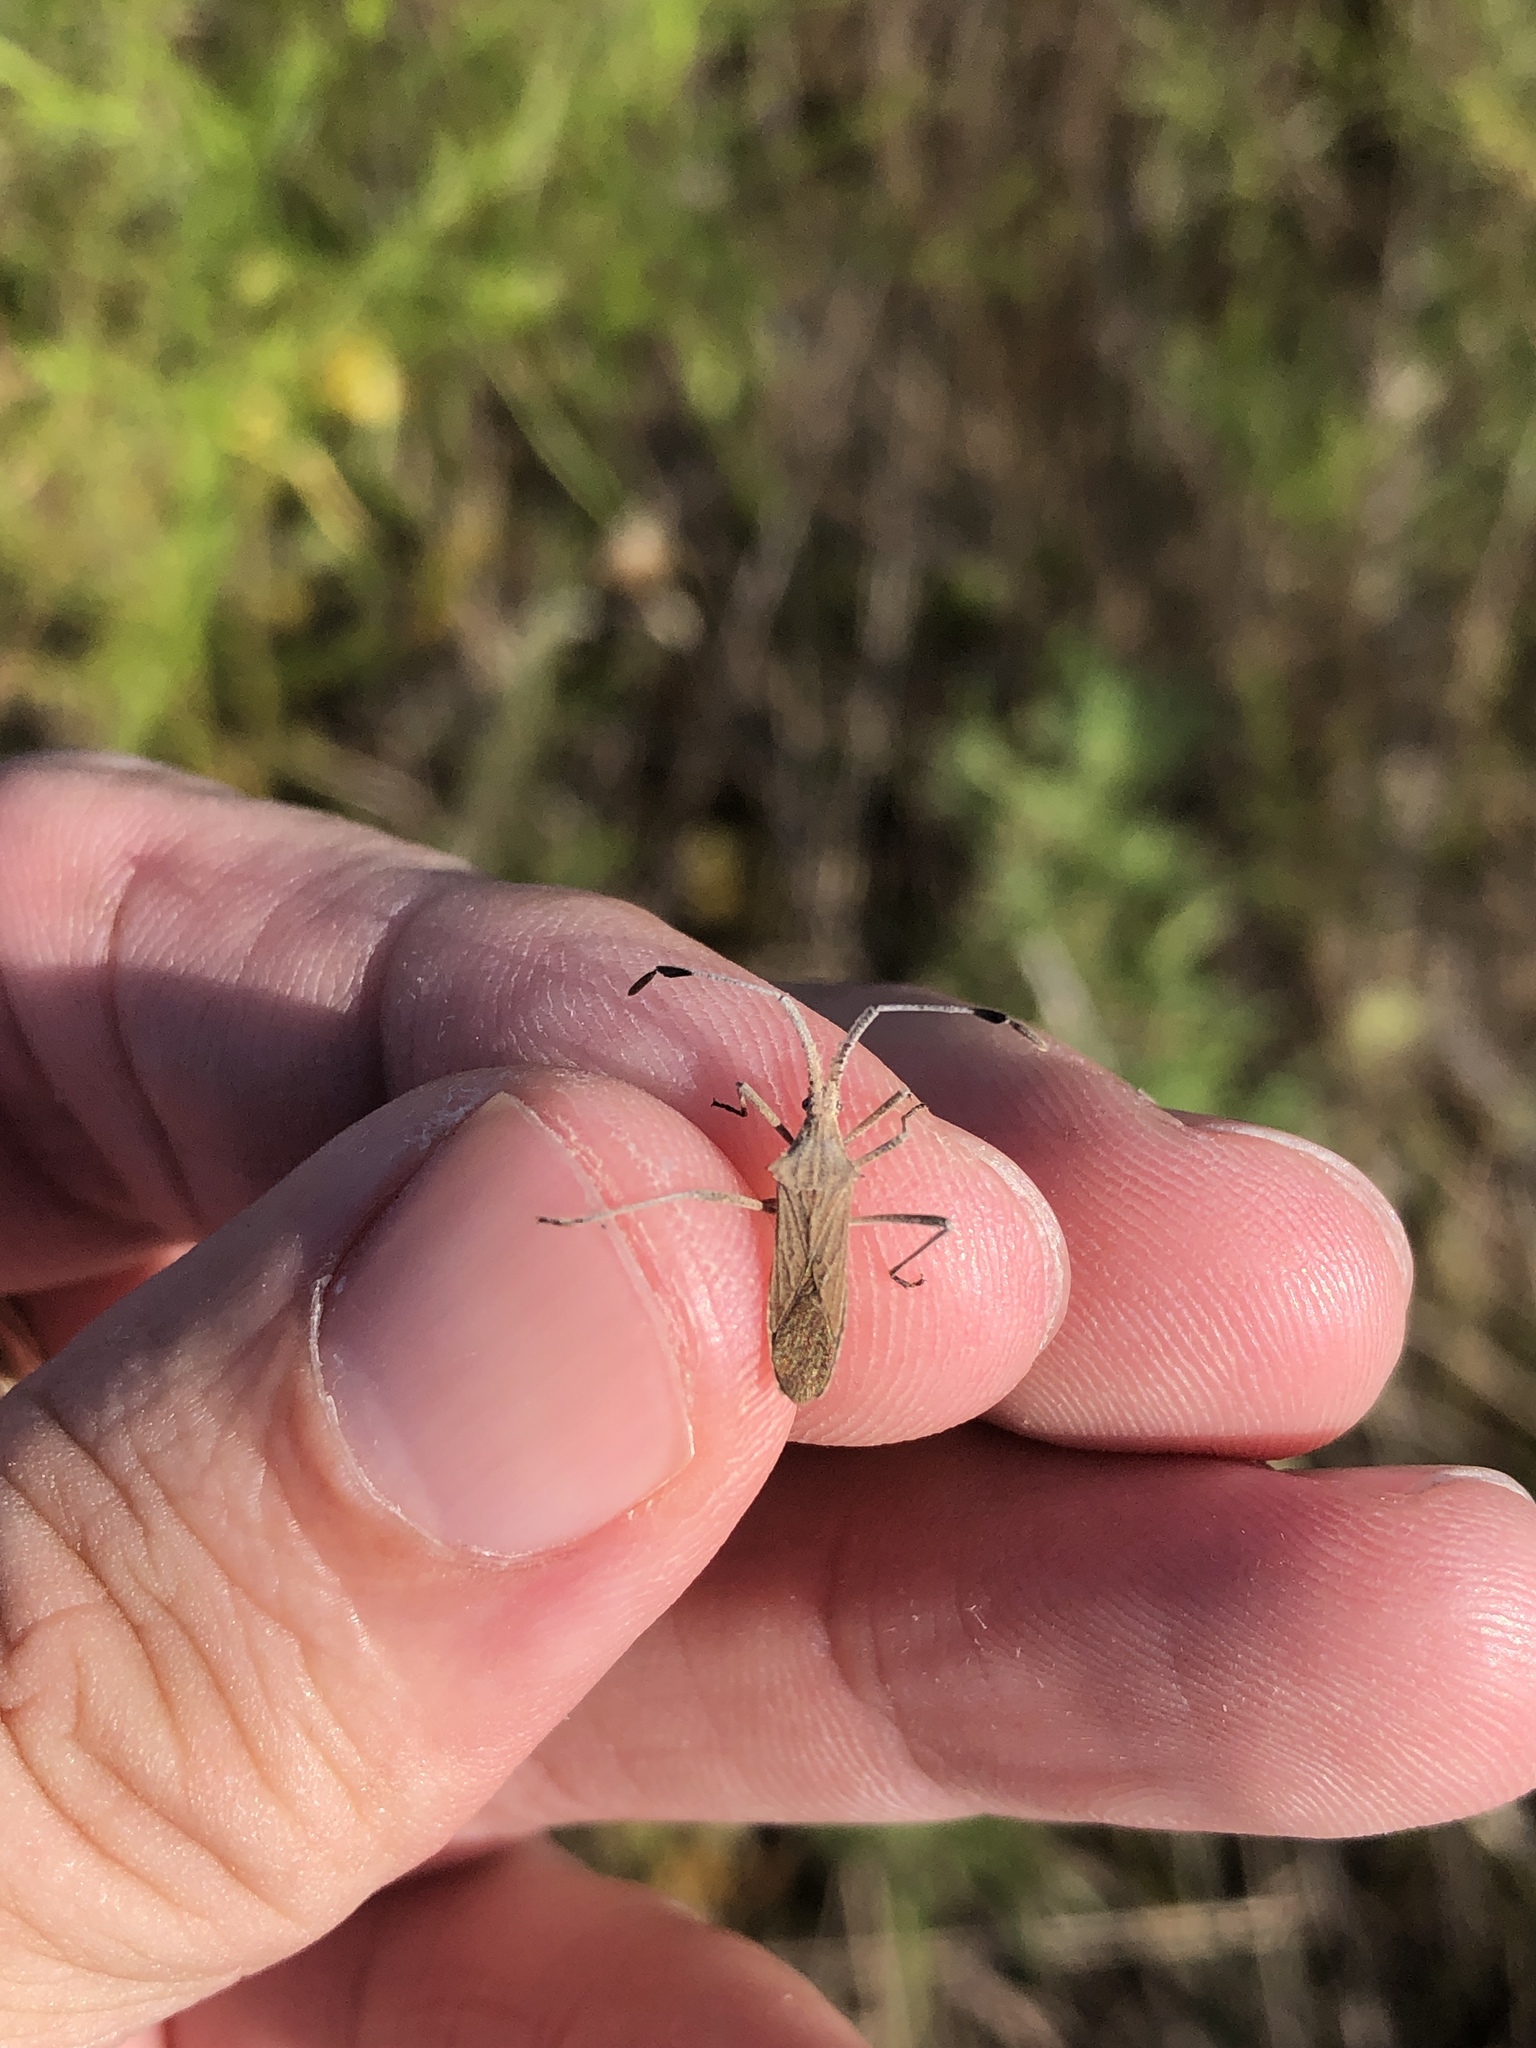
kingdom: Animalia
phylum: Arthropoda
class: Insecta
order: Hemiptera
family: Coreidae
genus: Chariesterus
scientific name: Chariesterus antennator
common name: Flat horned coreid
